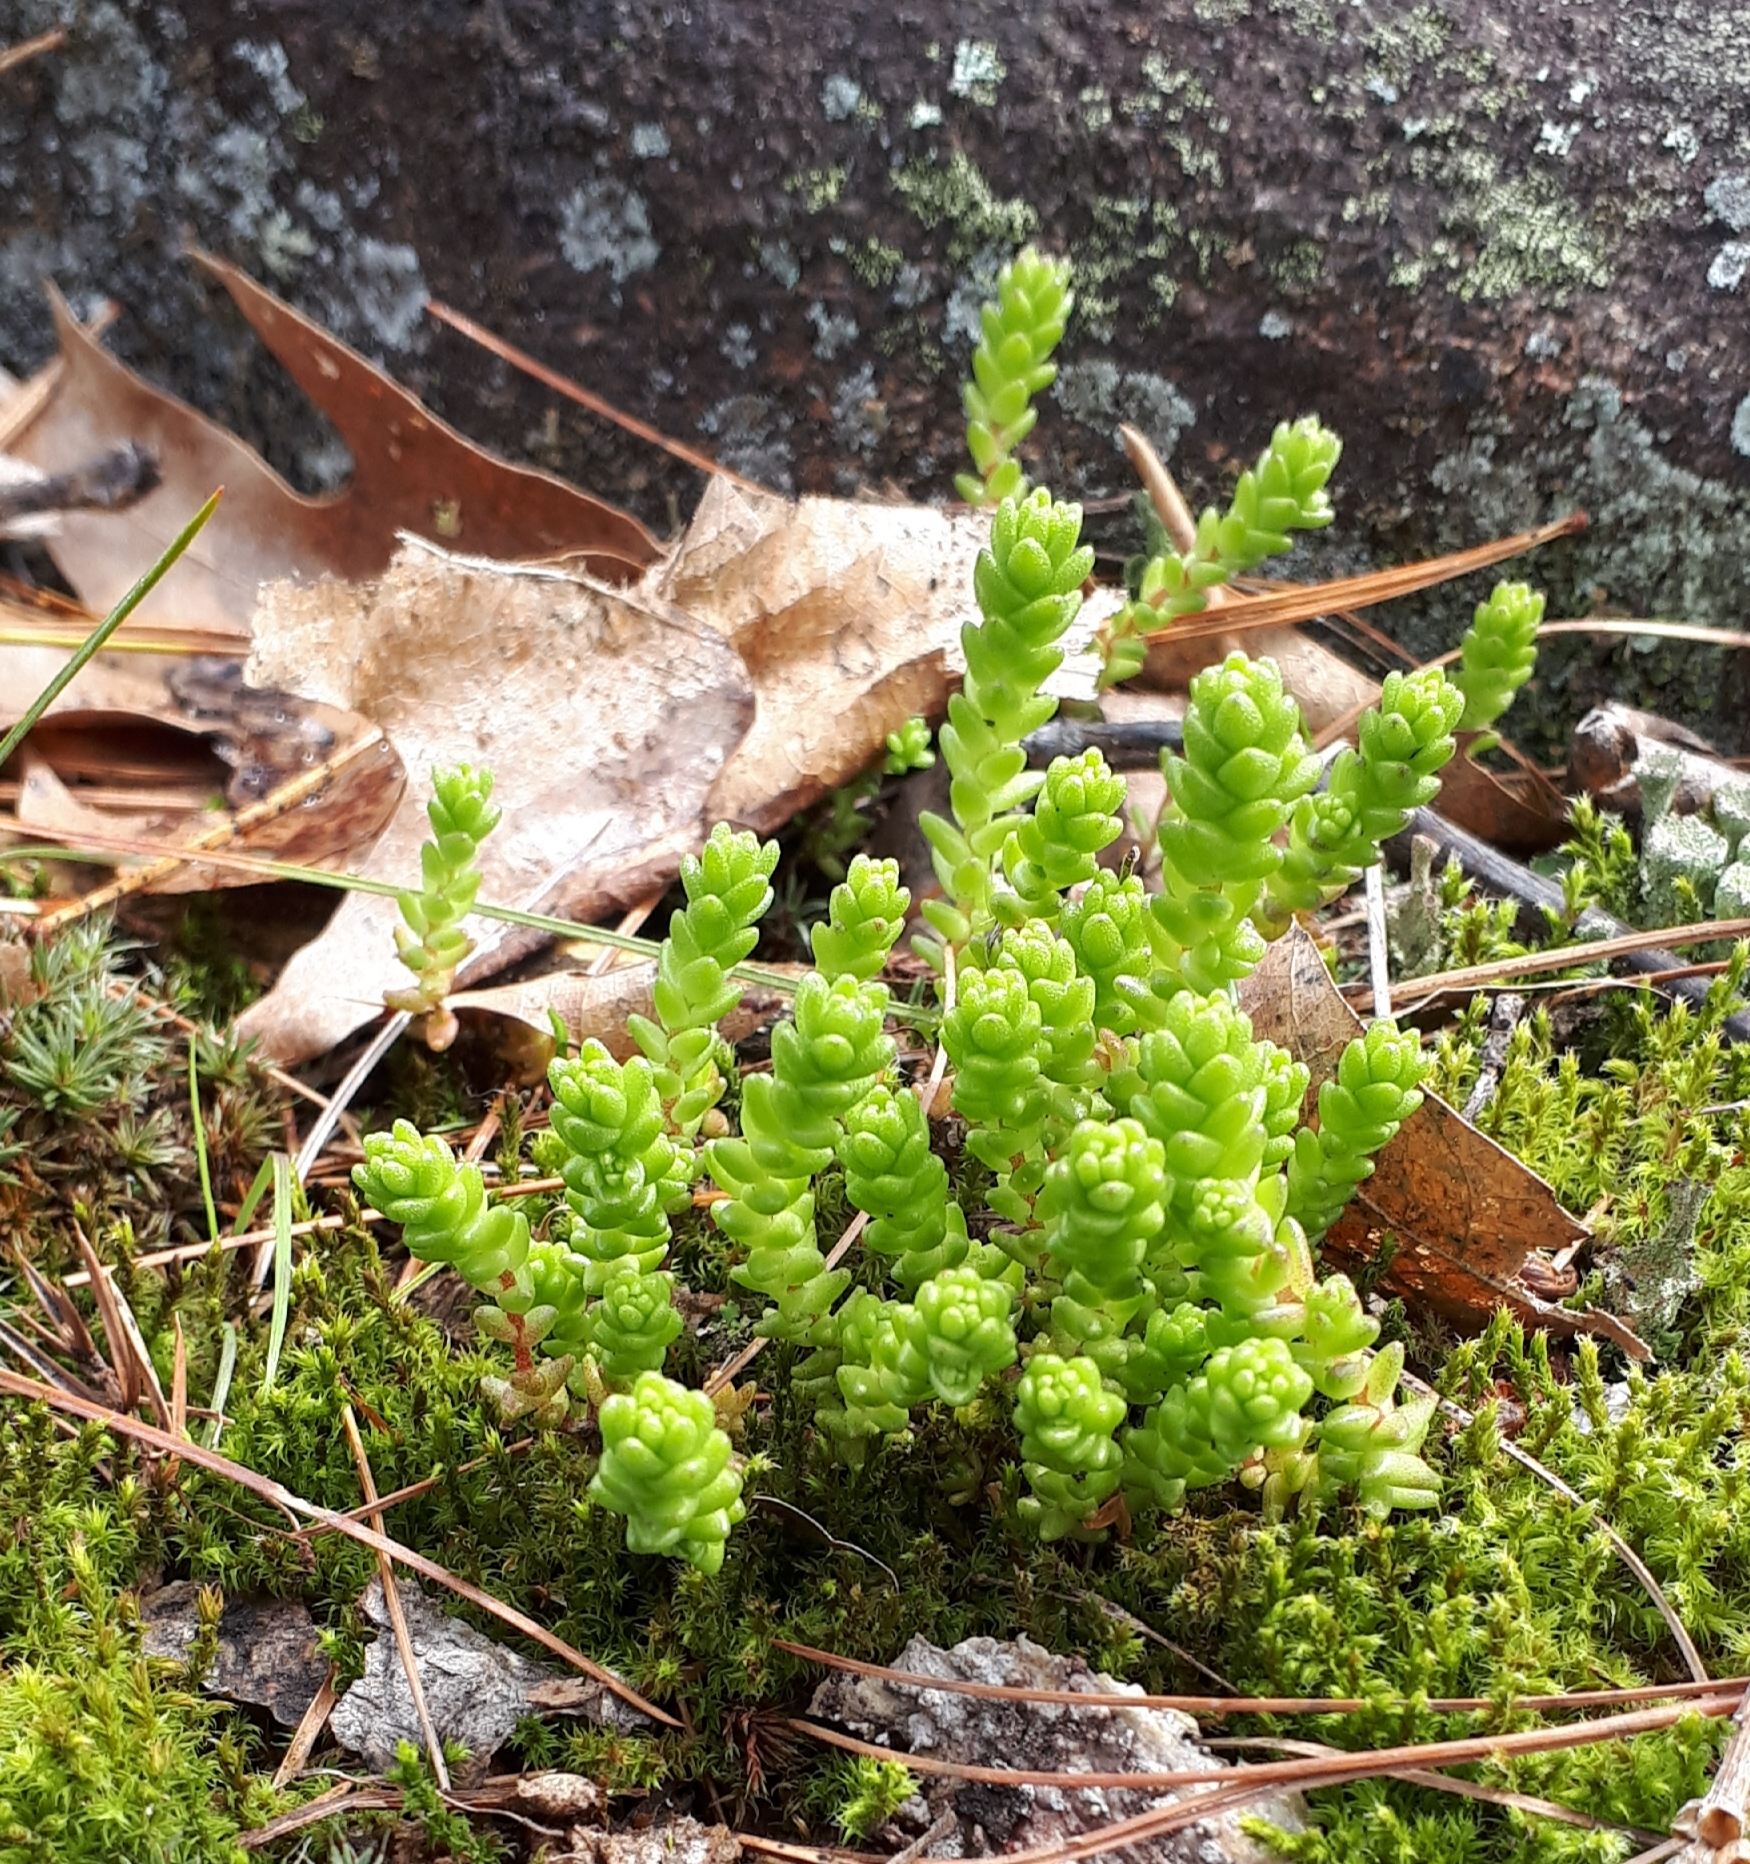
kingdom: Plantae
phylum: Tracheophyta
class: Magnoliopsida
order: Saxifragales
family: Crassulaceae
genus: Sedum
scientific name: Sedum acre
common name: Biting stonecrop
